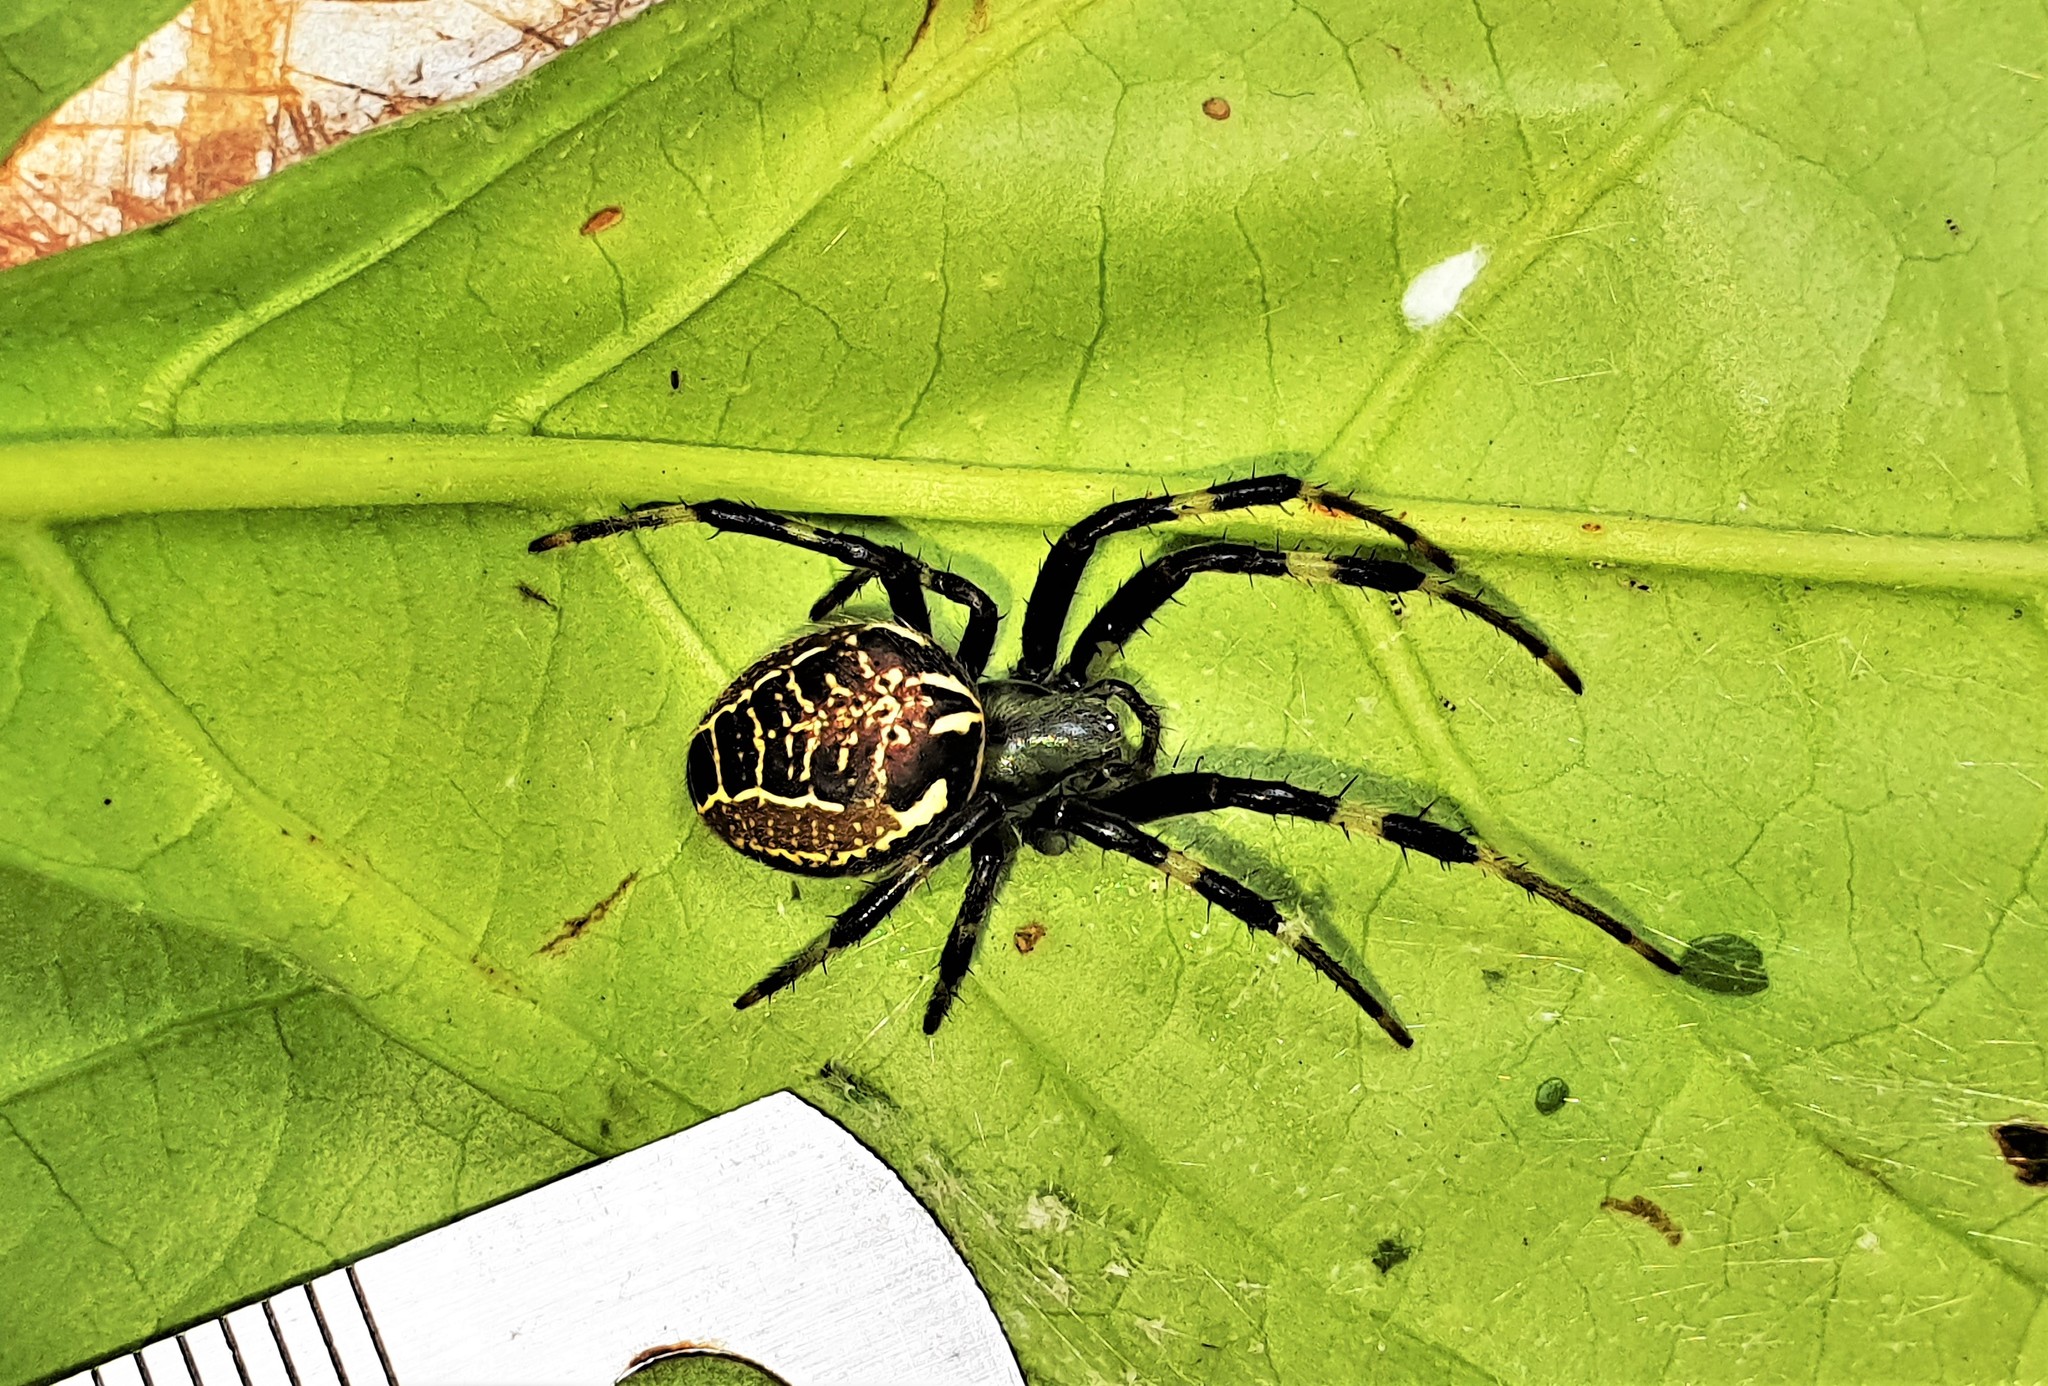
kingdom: Animalia
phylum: Arthropoda
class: Arachnida
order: Araneae
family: Araneidae
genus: Araneus
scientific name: Araneus venatrix
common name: Orb weavers
